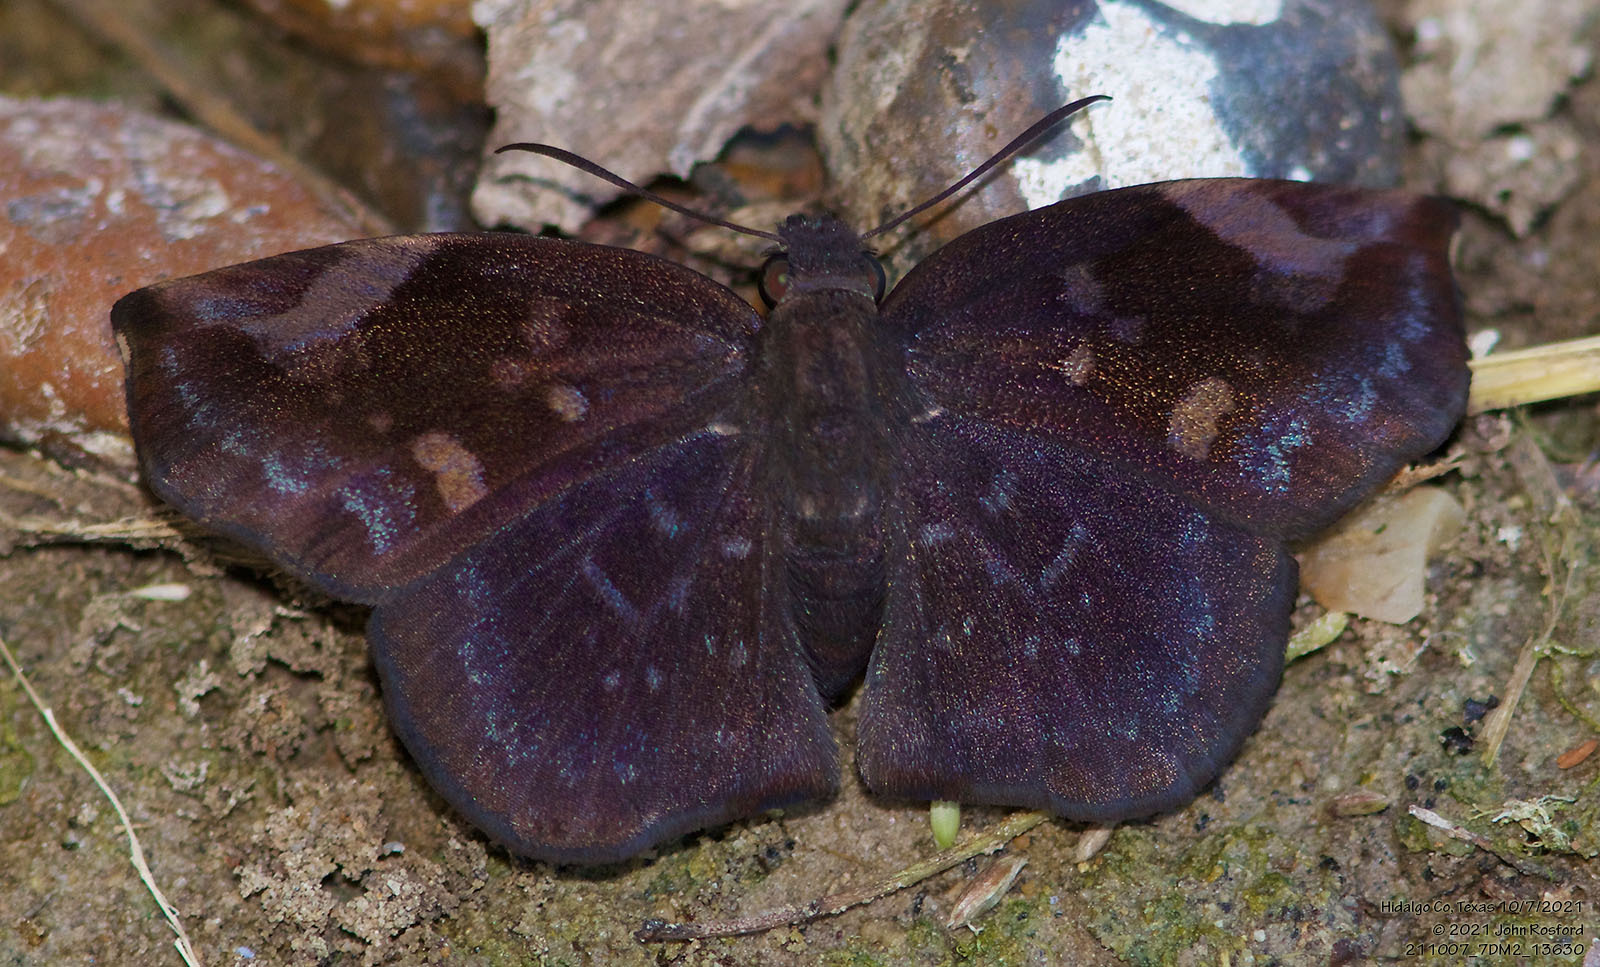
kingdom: Animalia
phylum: Arthropoda
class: Insecta
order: Lepidoptera
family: Hesperiidae
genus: Achlyodes
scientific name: Achlyodes thraso
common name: Sickle-winged skipper
